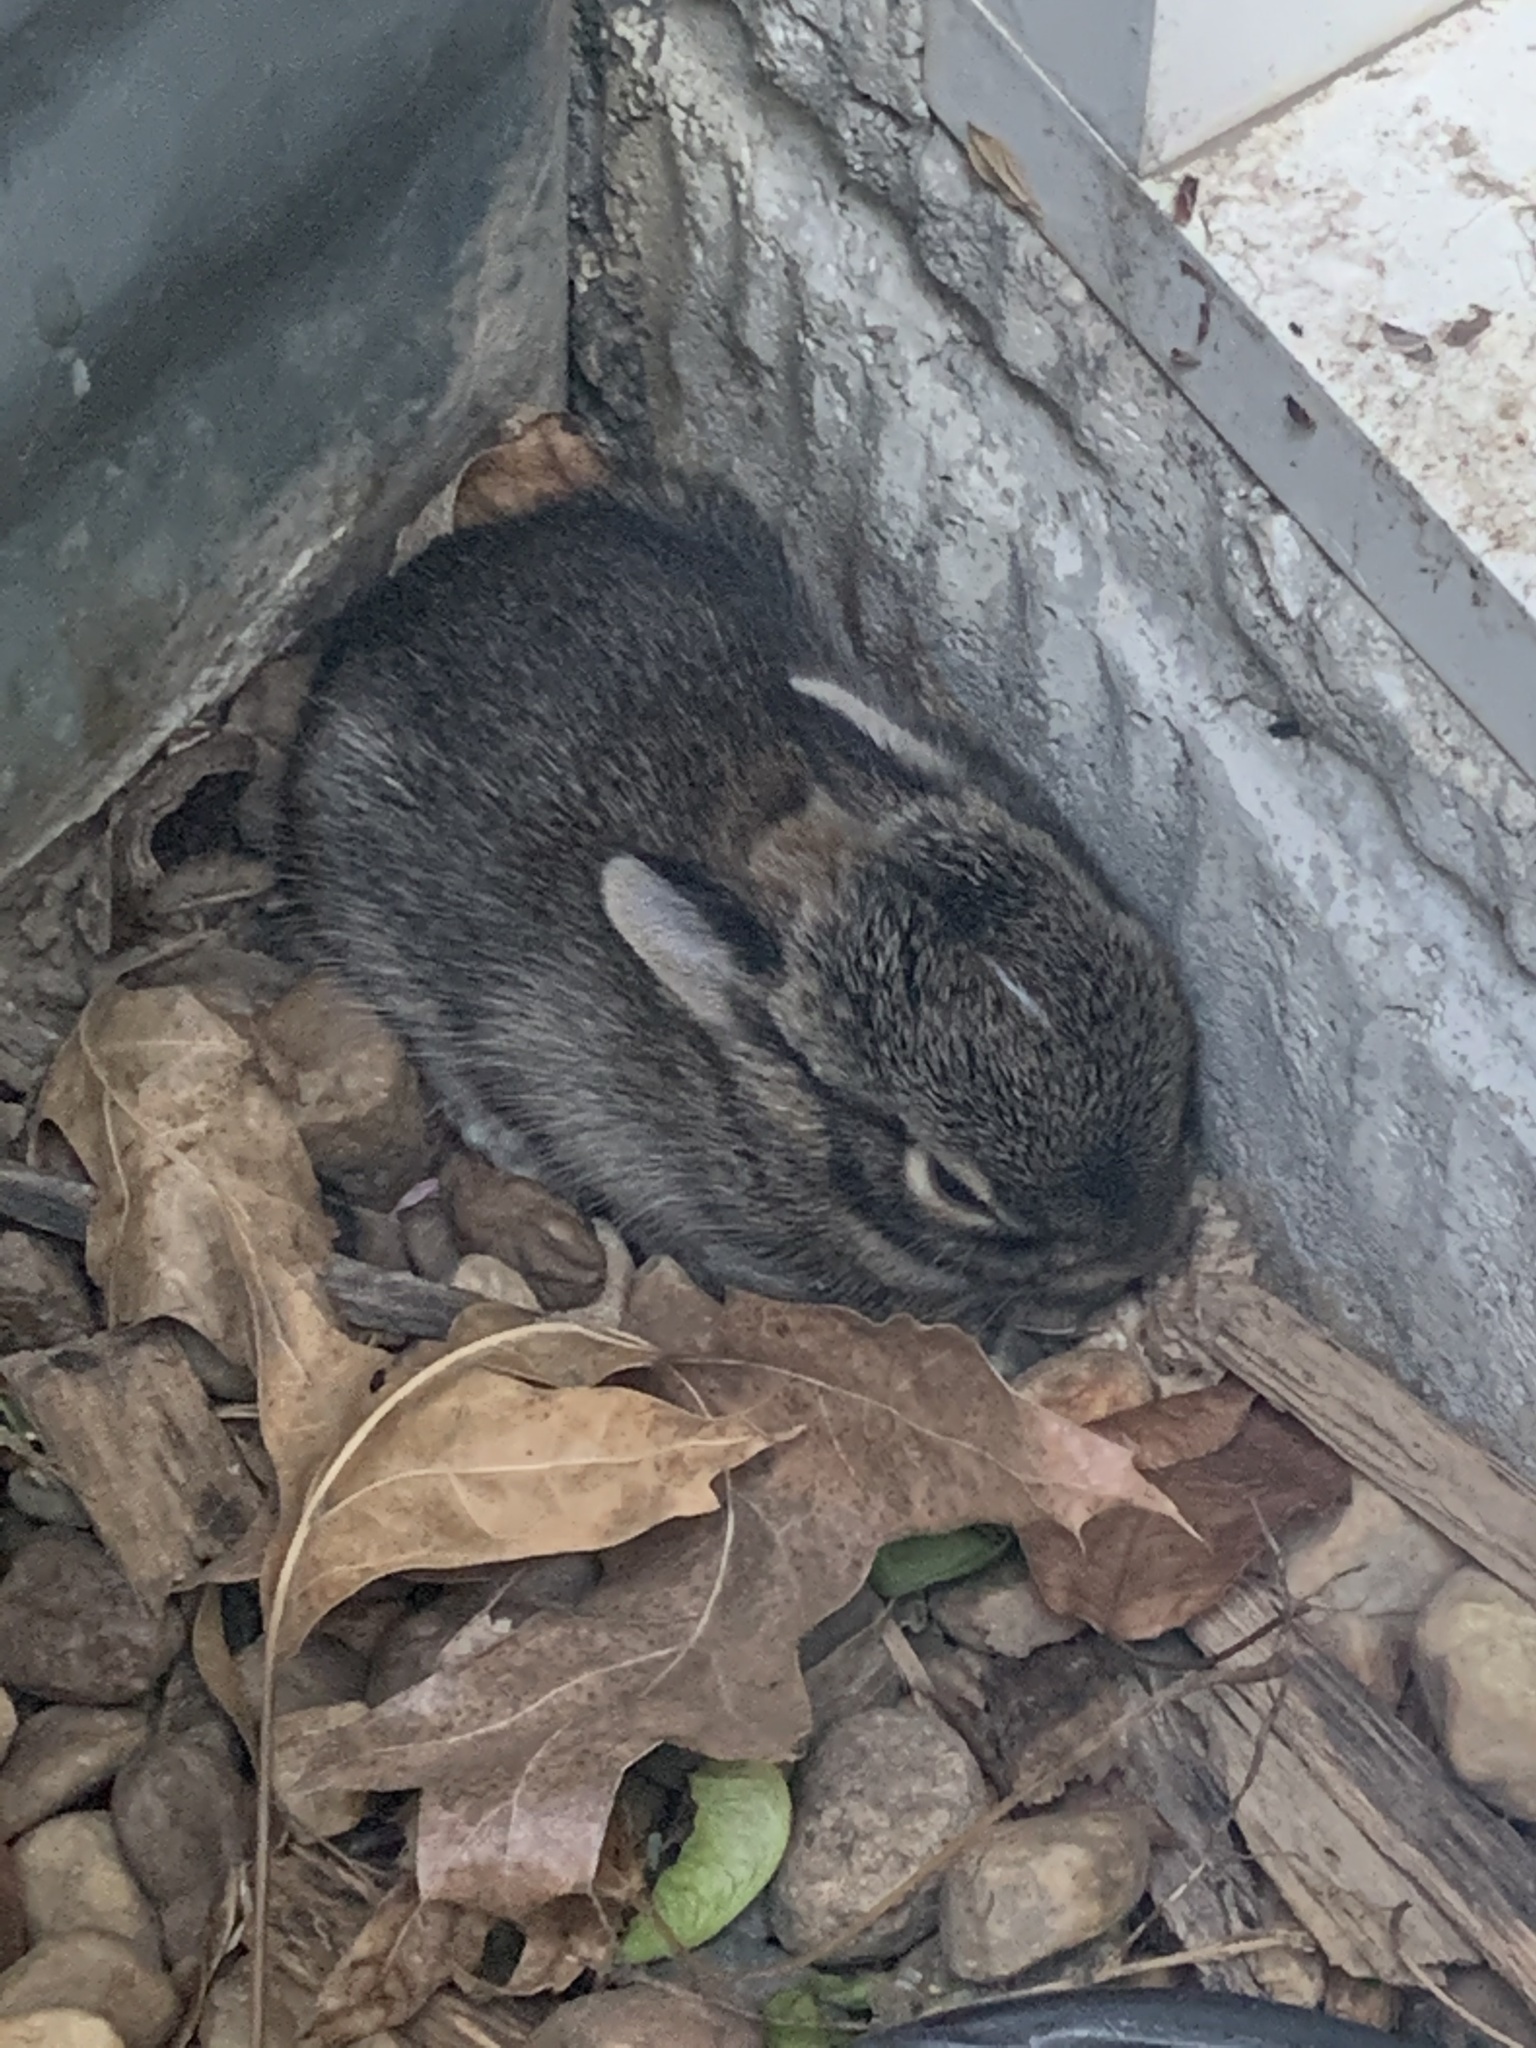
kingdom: Animalia
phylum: Chordata
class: Mammalia
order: Lagomorpha
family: Leporidae
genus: Sylvilagus
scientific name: Sylvilagus floridanus
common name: Eastern cottontail
